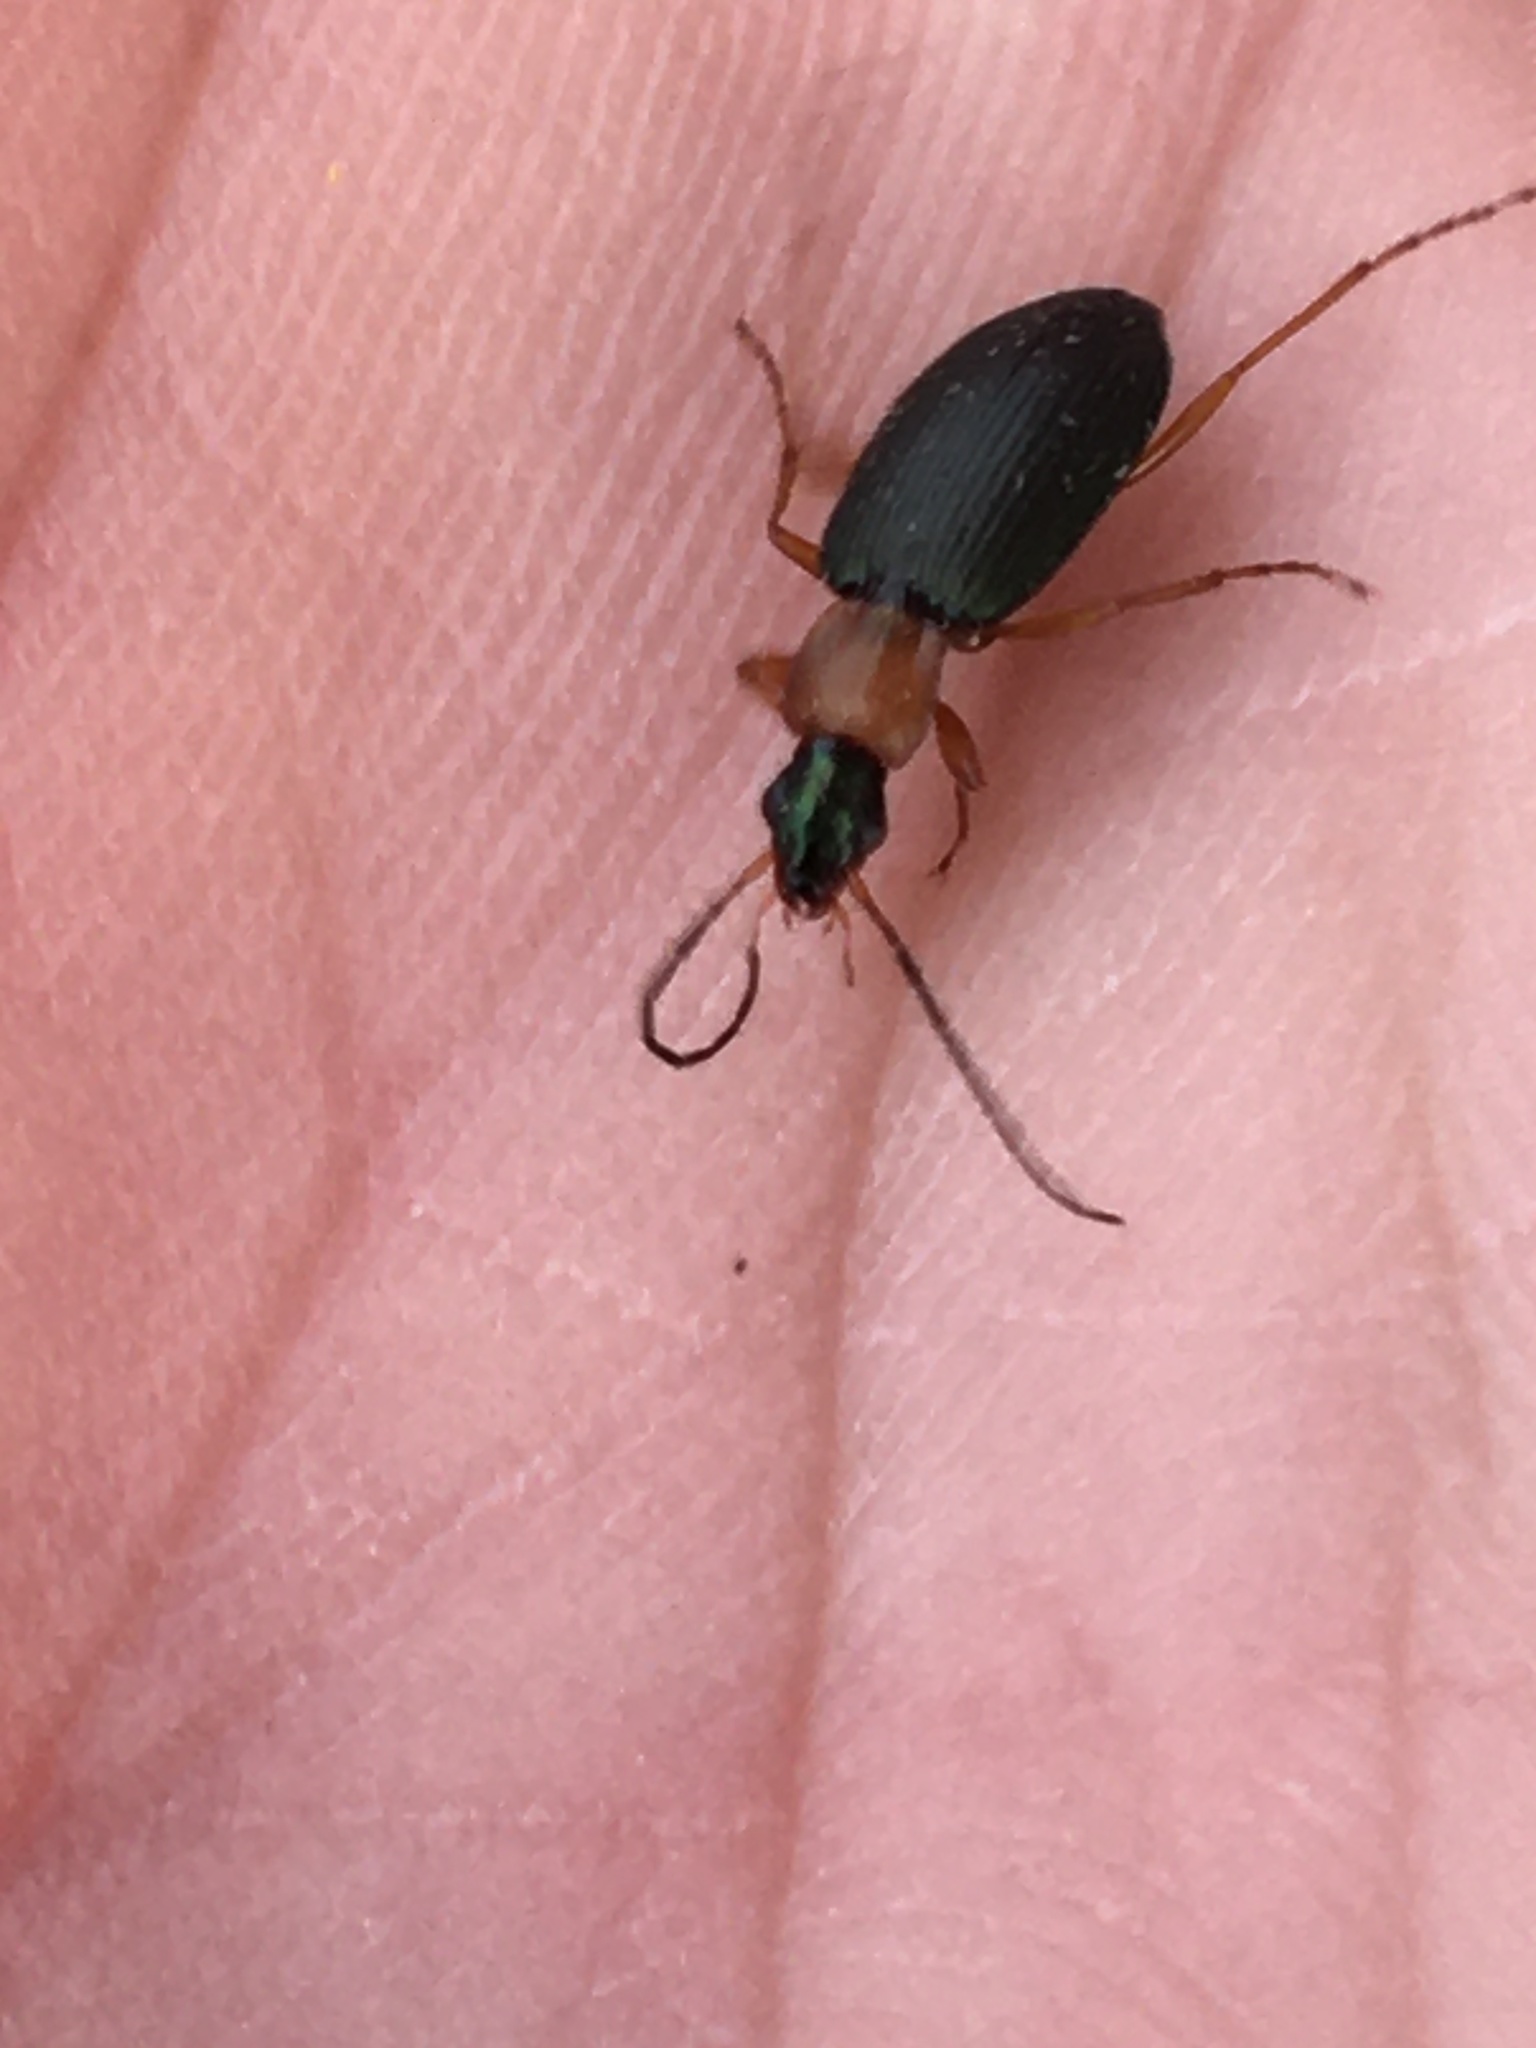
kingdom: Animalia
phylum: Arthropoda
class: Insecta
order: Coleoptera
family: Carabidae
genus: Agonum
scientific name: Agonum decorum
